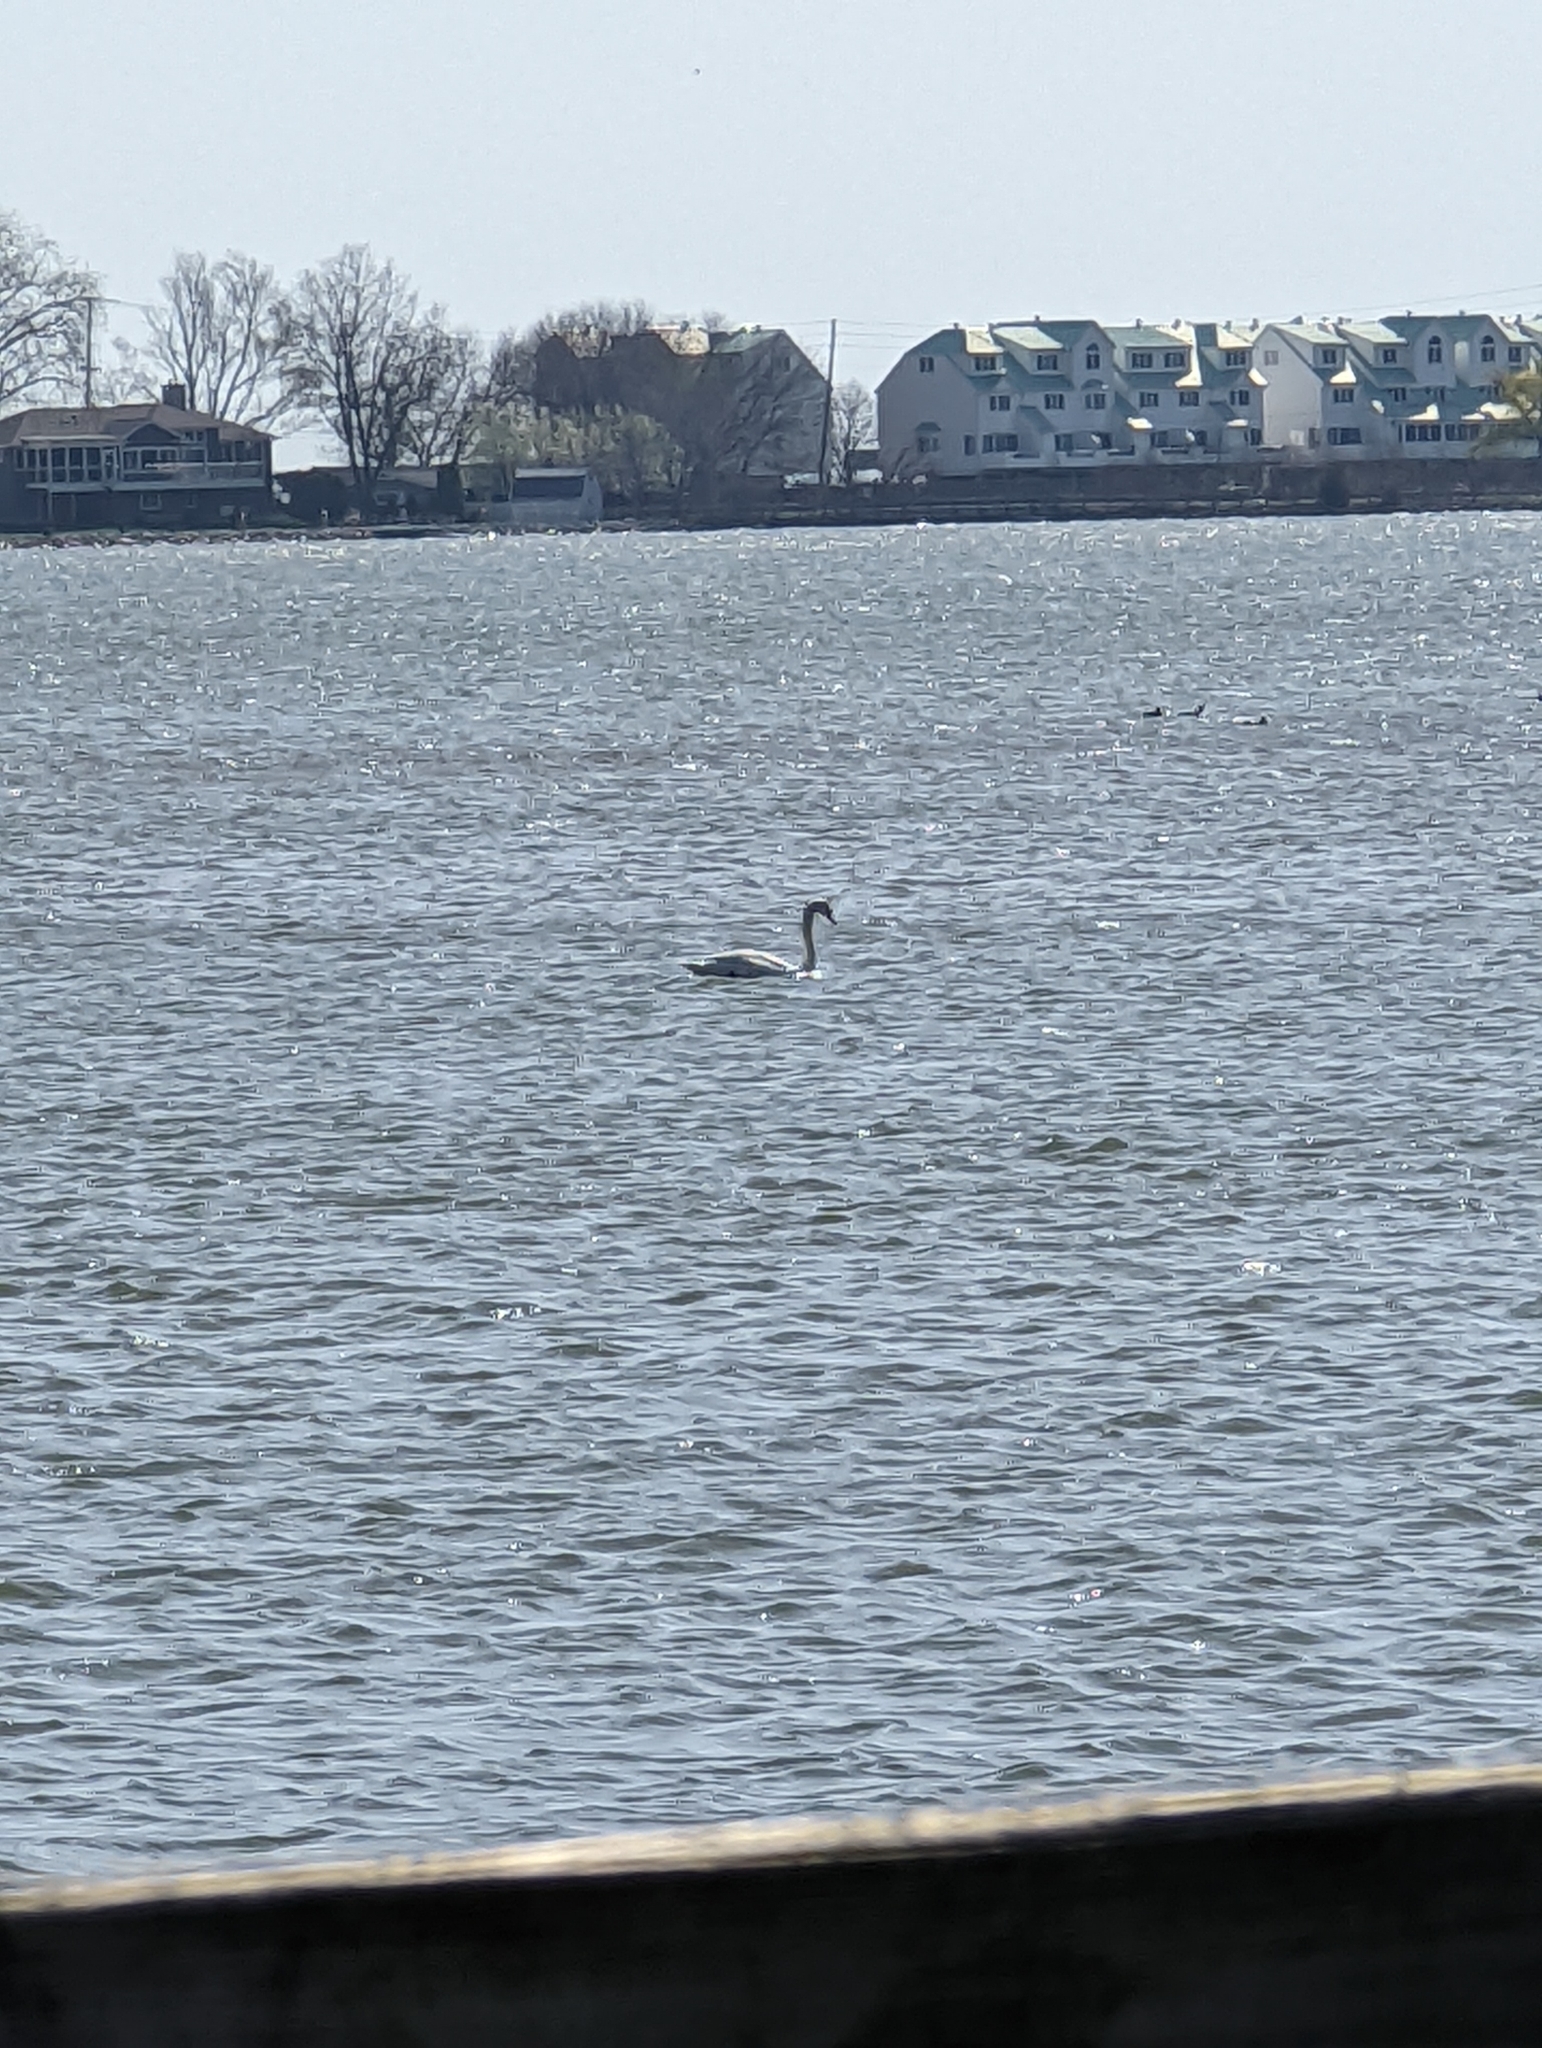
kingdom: Animalia
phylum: Chordata
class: Aves
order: Anseriformes
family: Anatidae
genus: Cygnus
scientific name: Cygnus olor
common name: Mute swan
